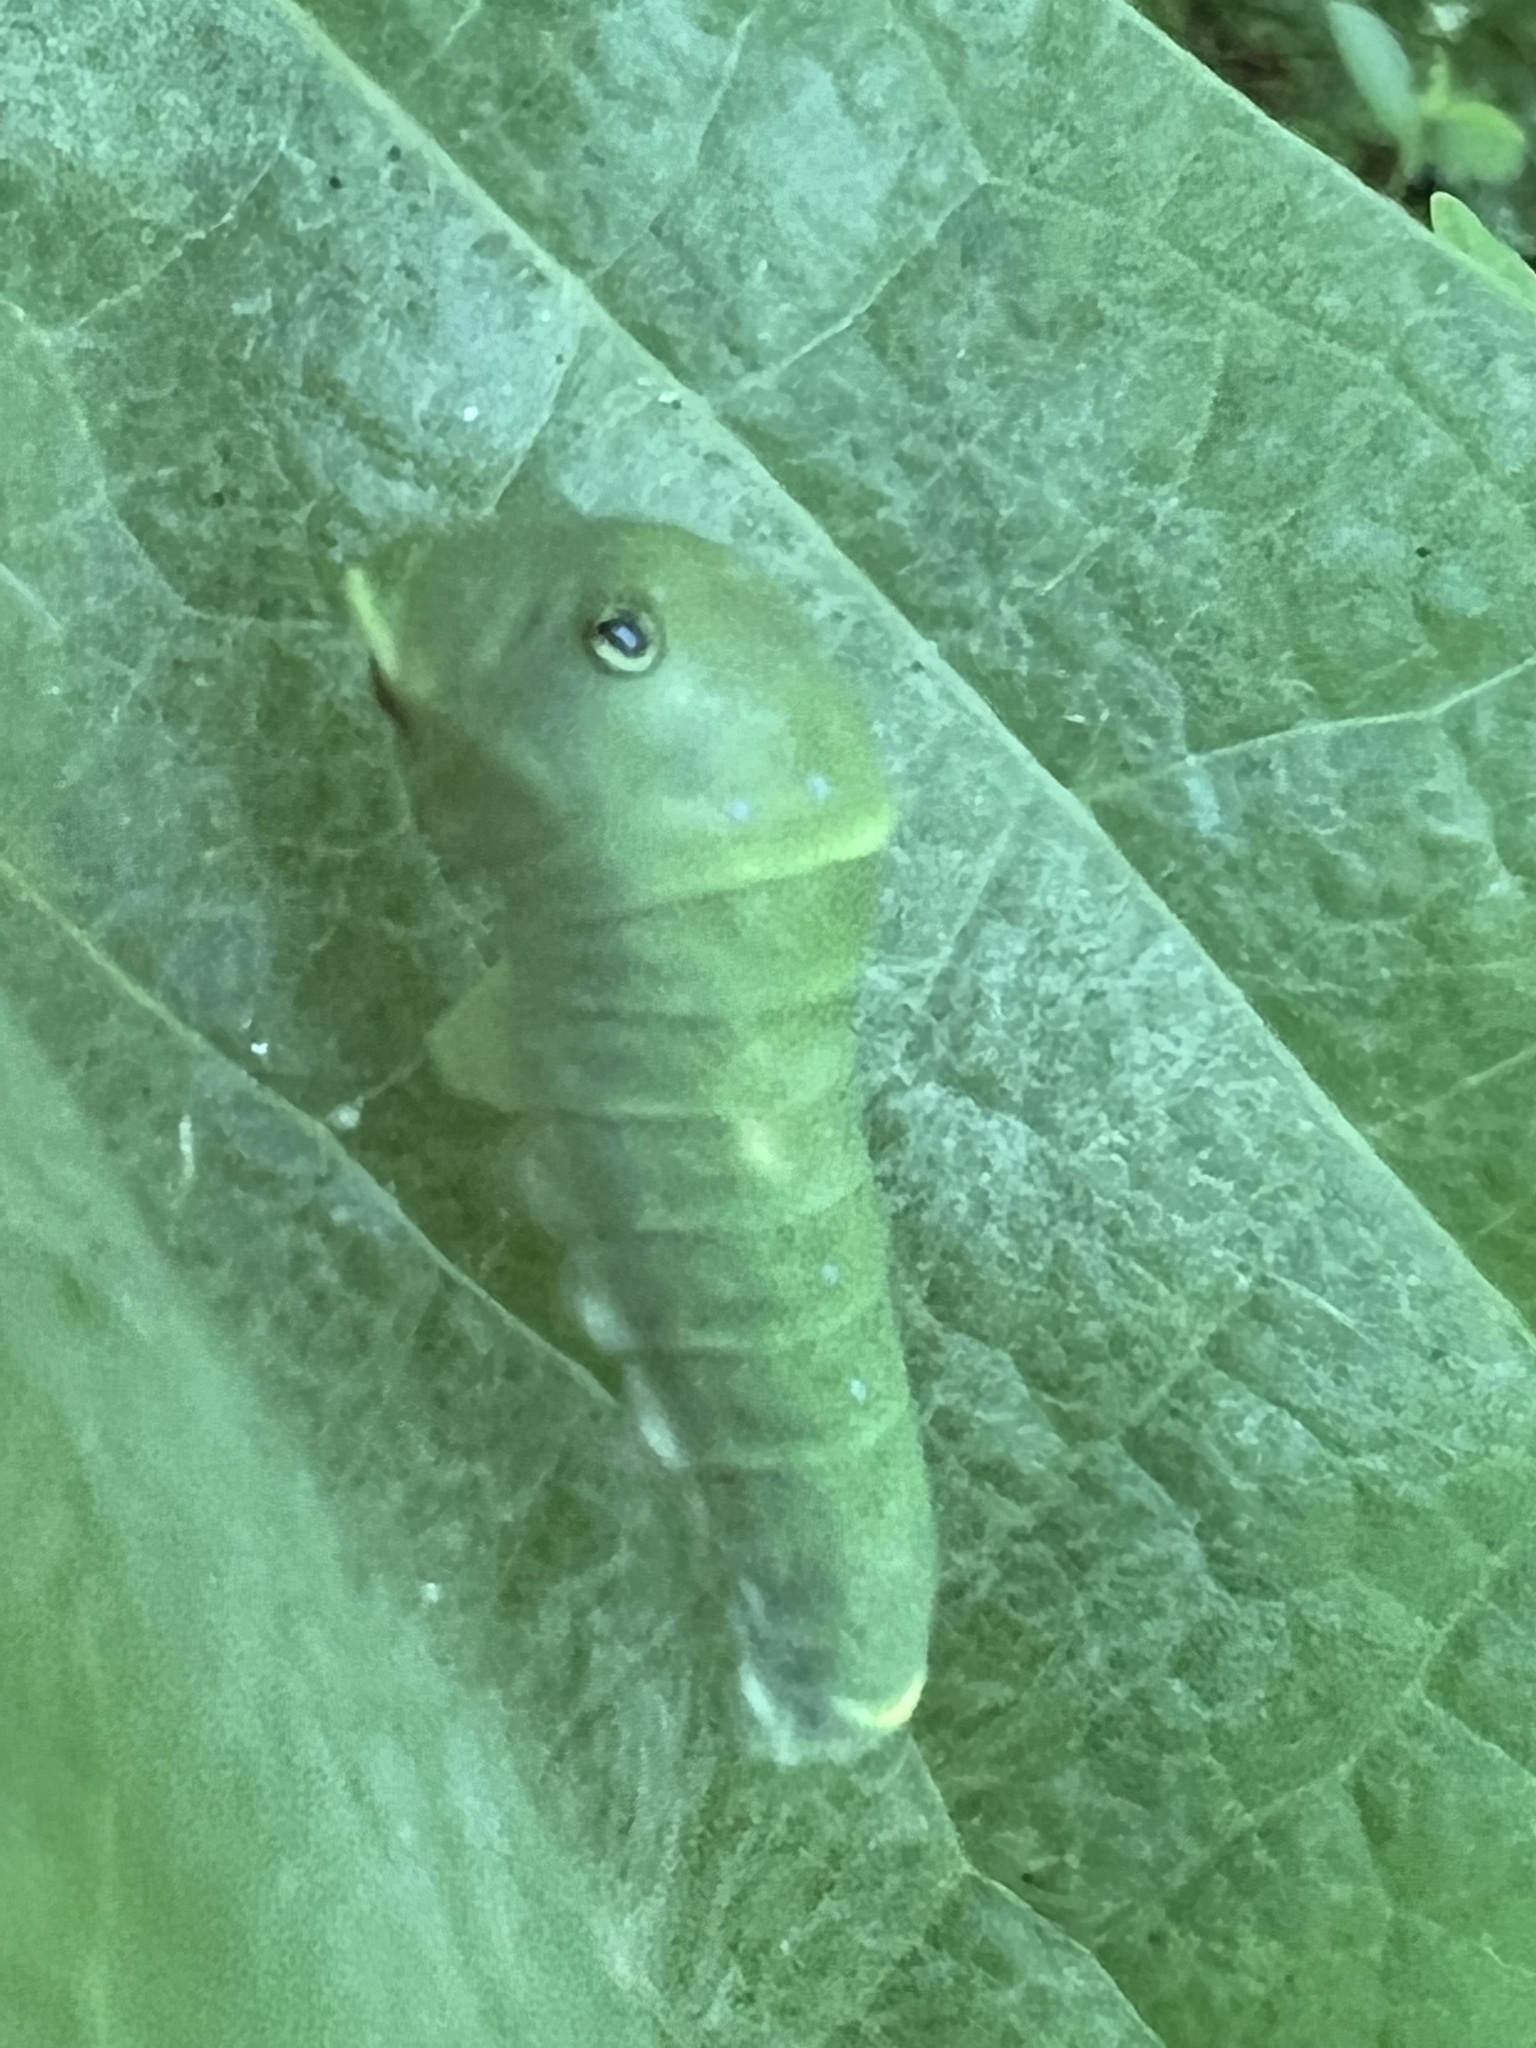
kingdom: Animalia
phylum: Arthropoda
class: Insecta
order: Lepidoptera
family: Papilionidae
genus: Papilio
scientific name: Papilio glaucus
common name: Tiger swallowtail
